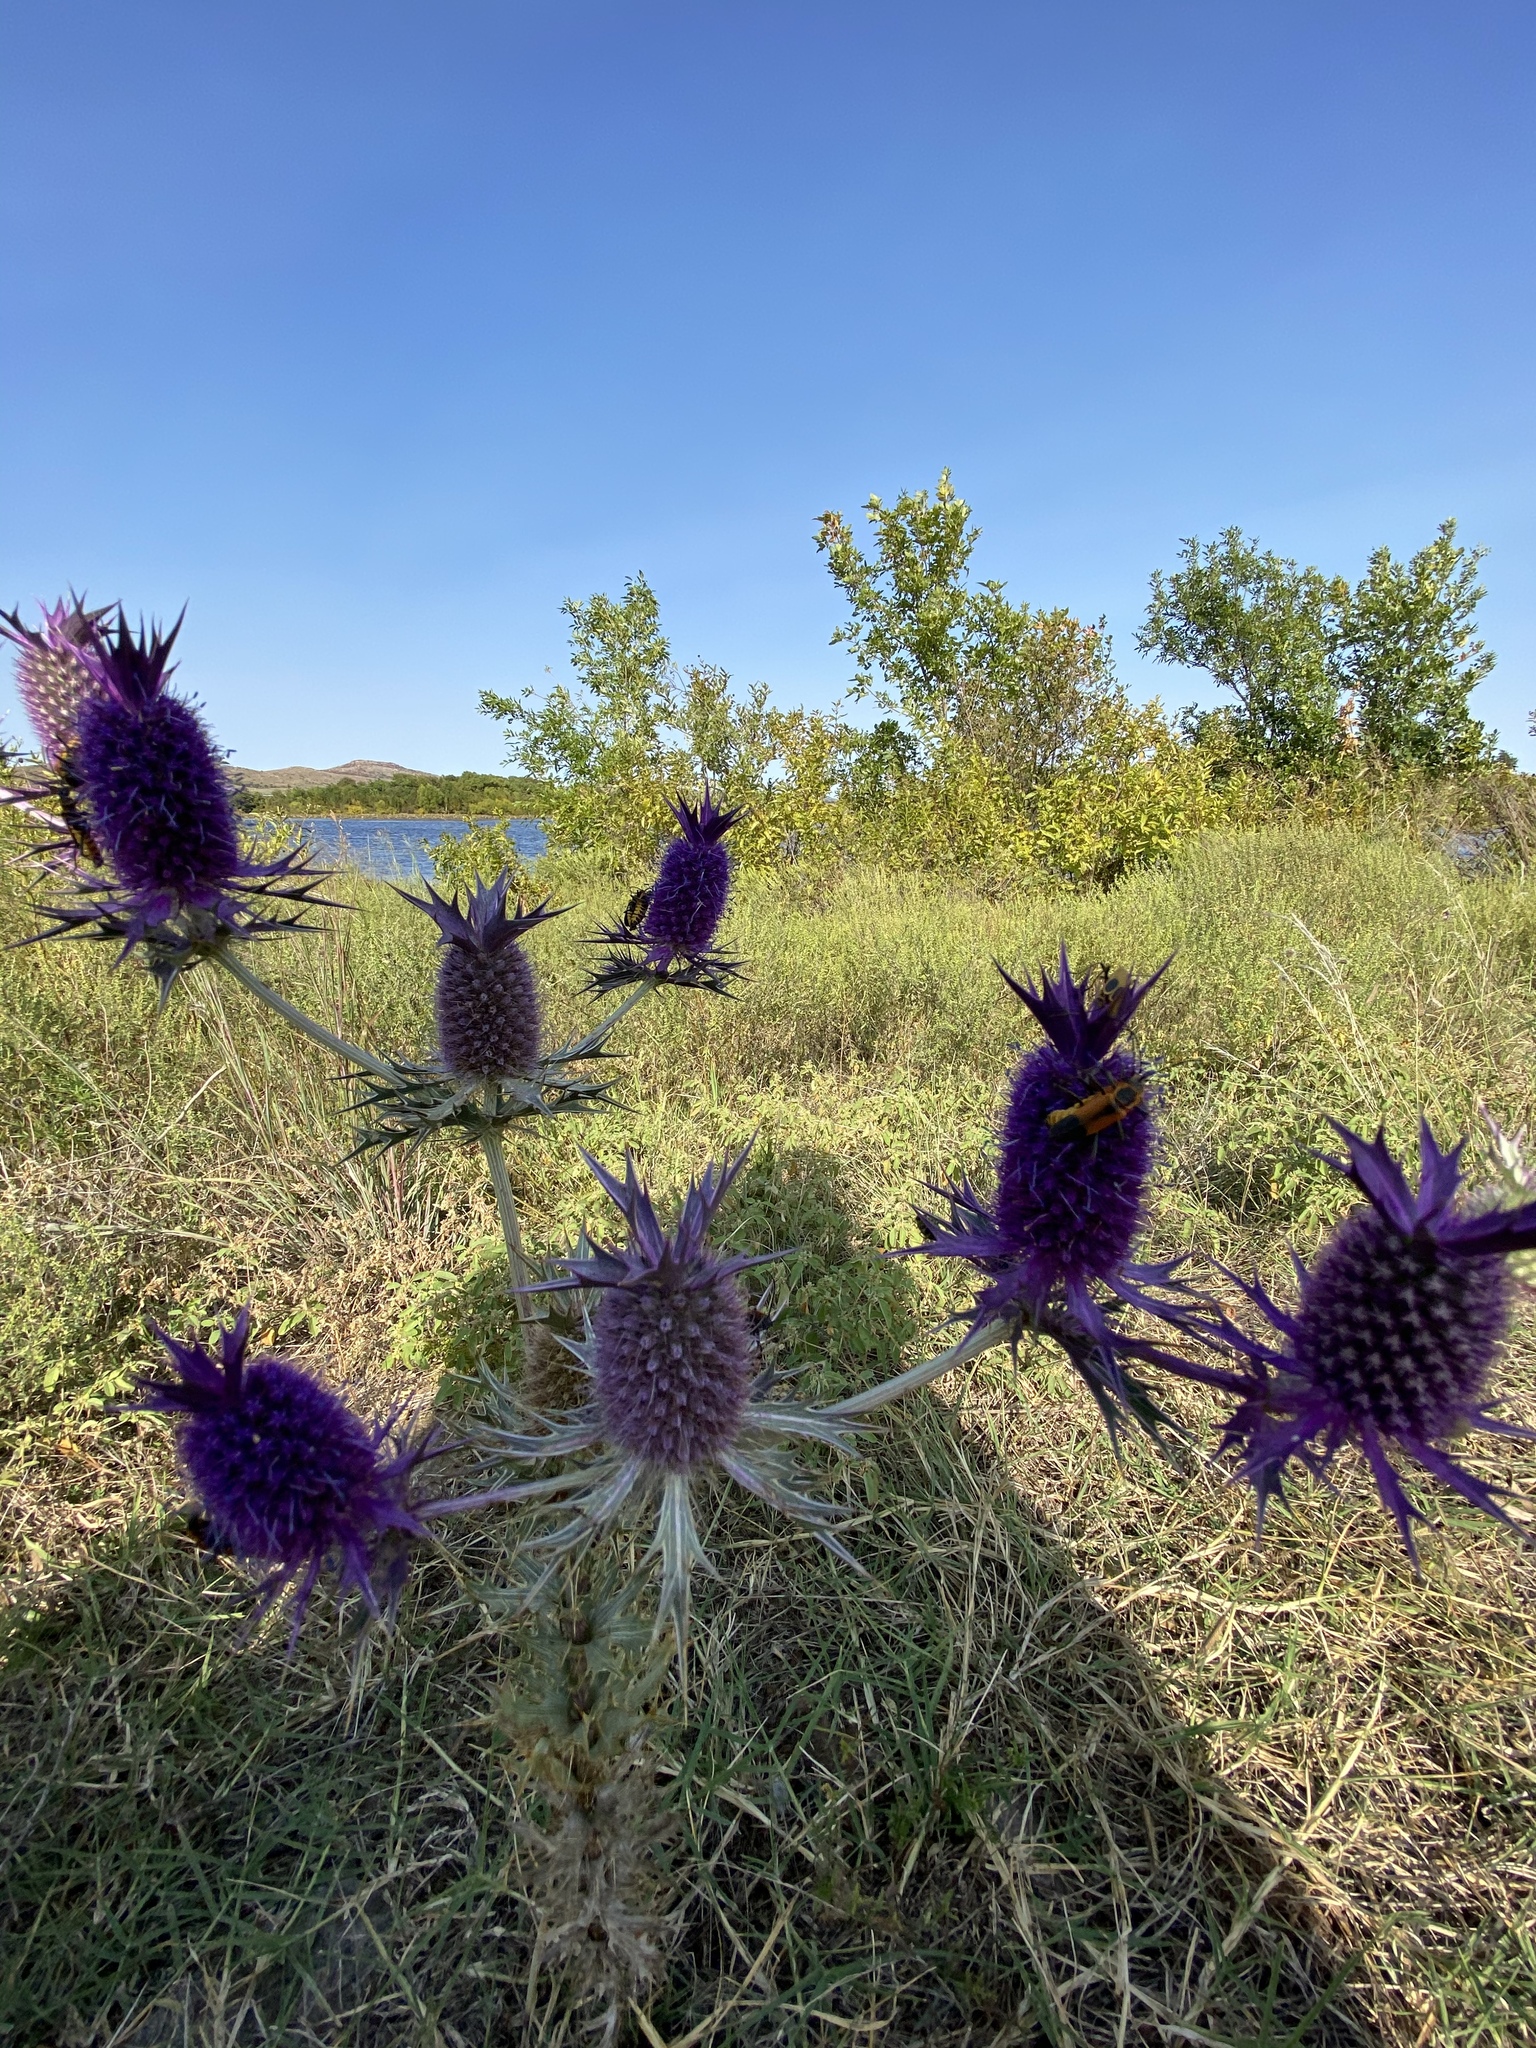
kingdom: Plantae
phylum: Tracheophyta
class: Magnoliopsida
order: Apiales
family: Apiaceae
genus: Eryngium
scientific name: Eryngium leavenworthii
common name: Leavenworth's eryngo
